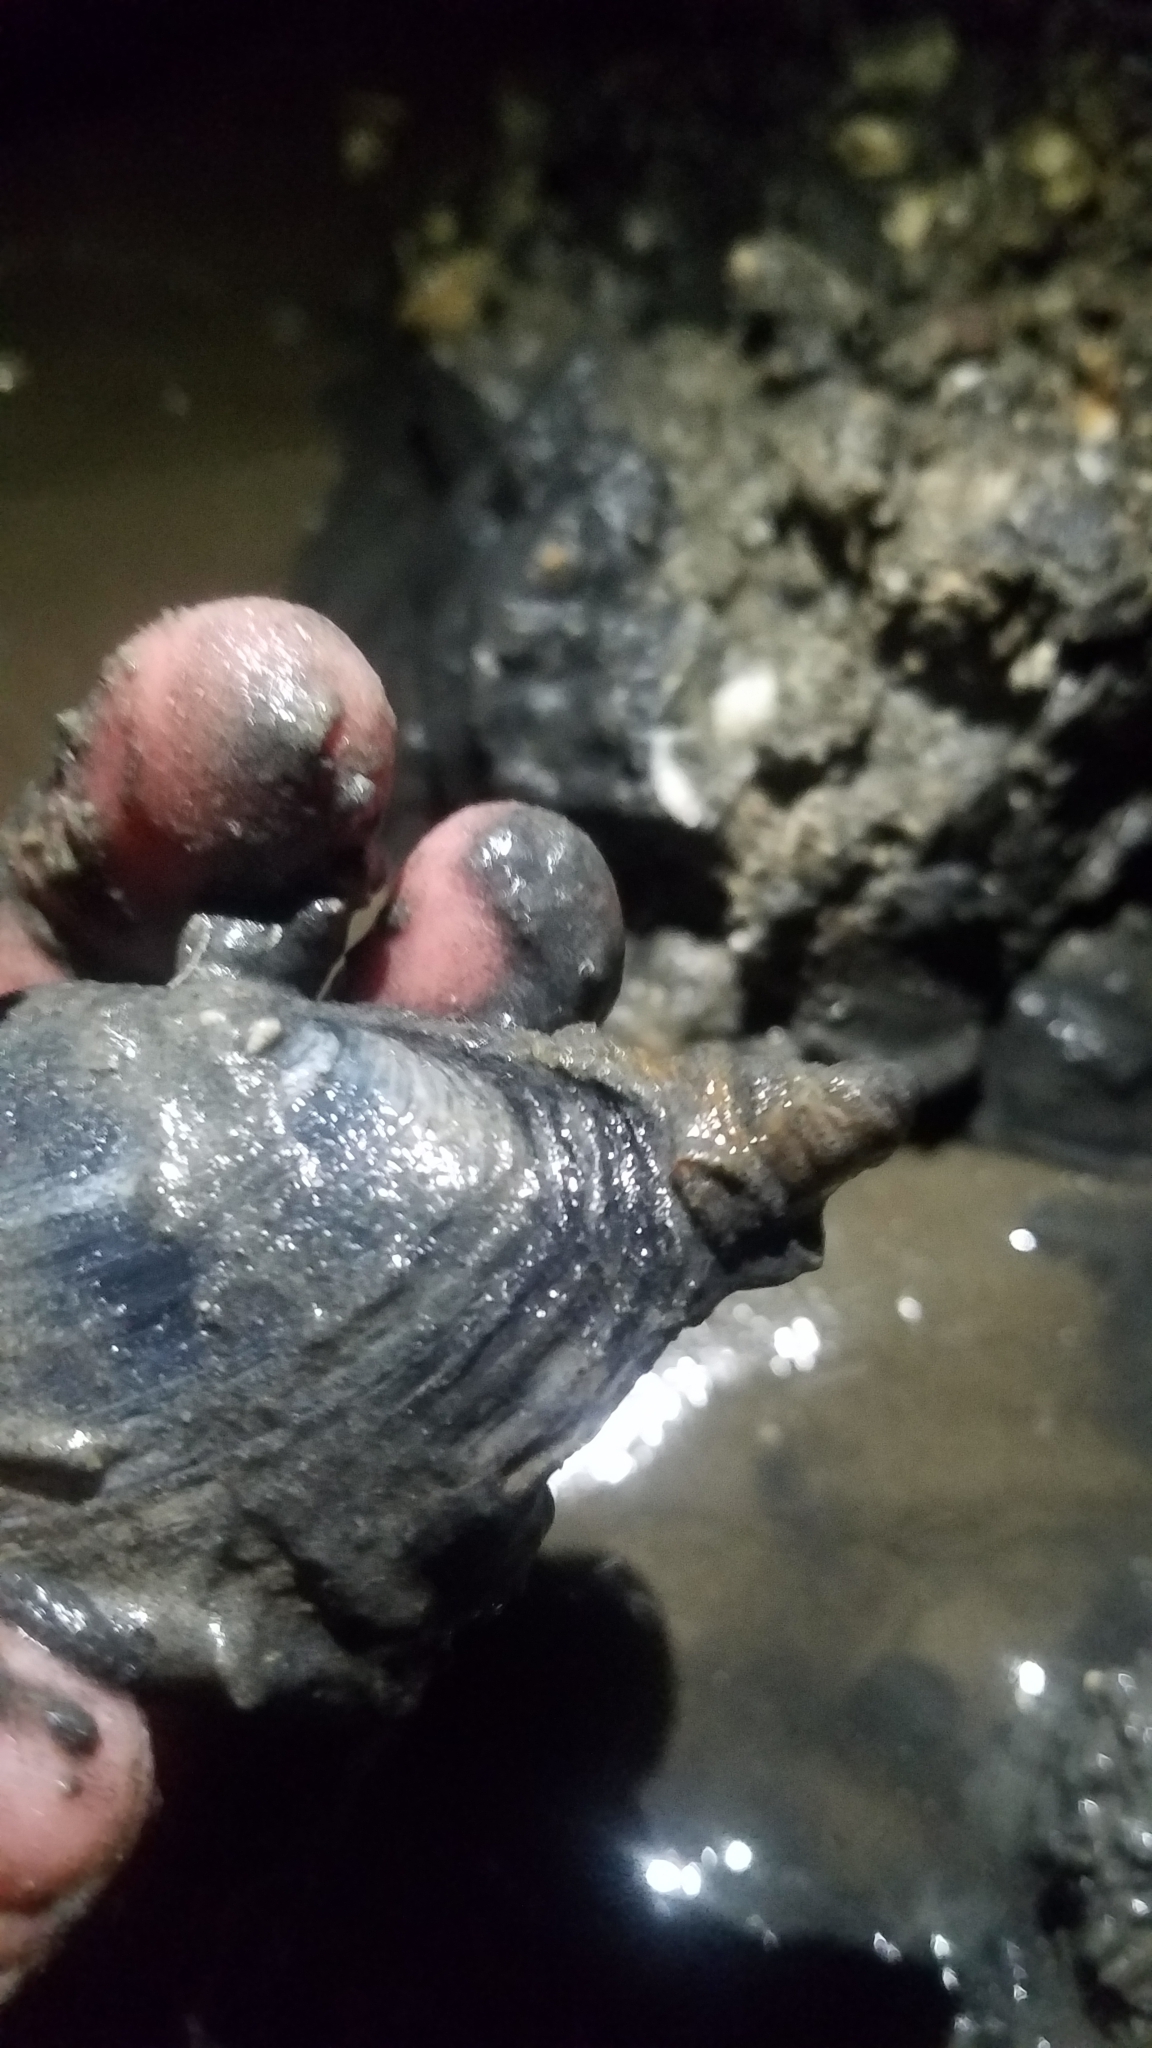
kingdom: Animalia
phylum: Mollusca
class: Bivalvia
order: Myida
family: Myidae
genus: Mya
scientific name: Mya arenaria
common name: Soft-shelled clam
